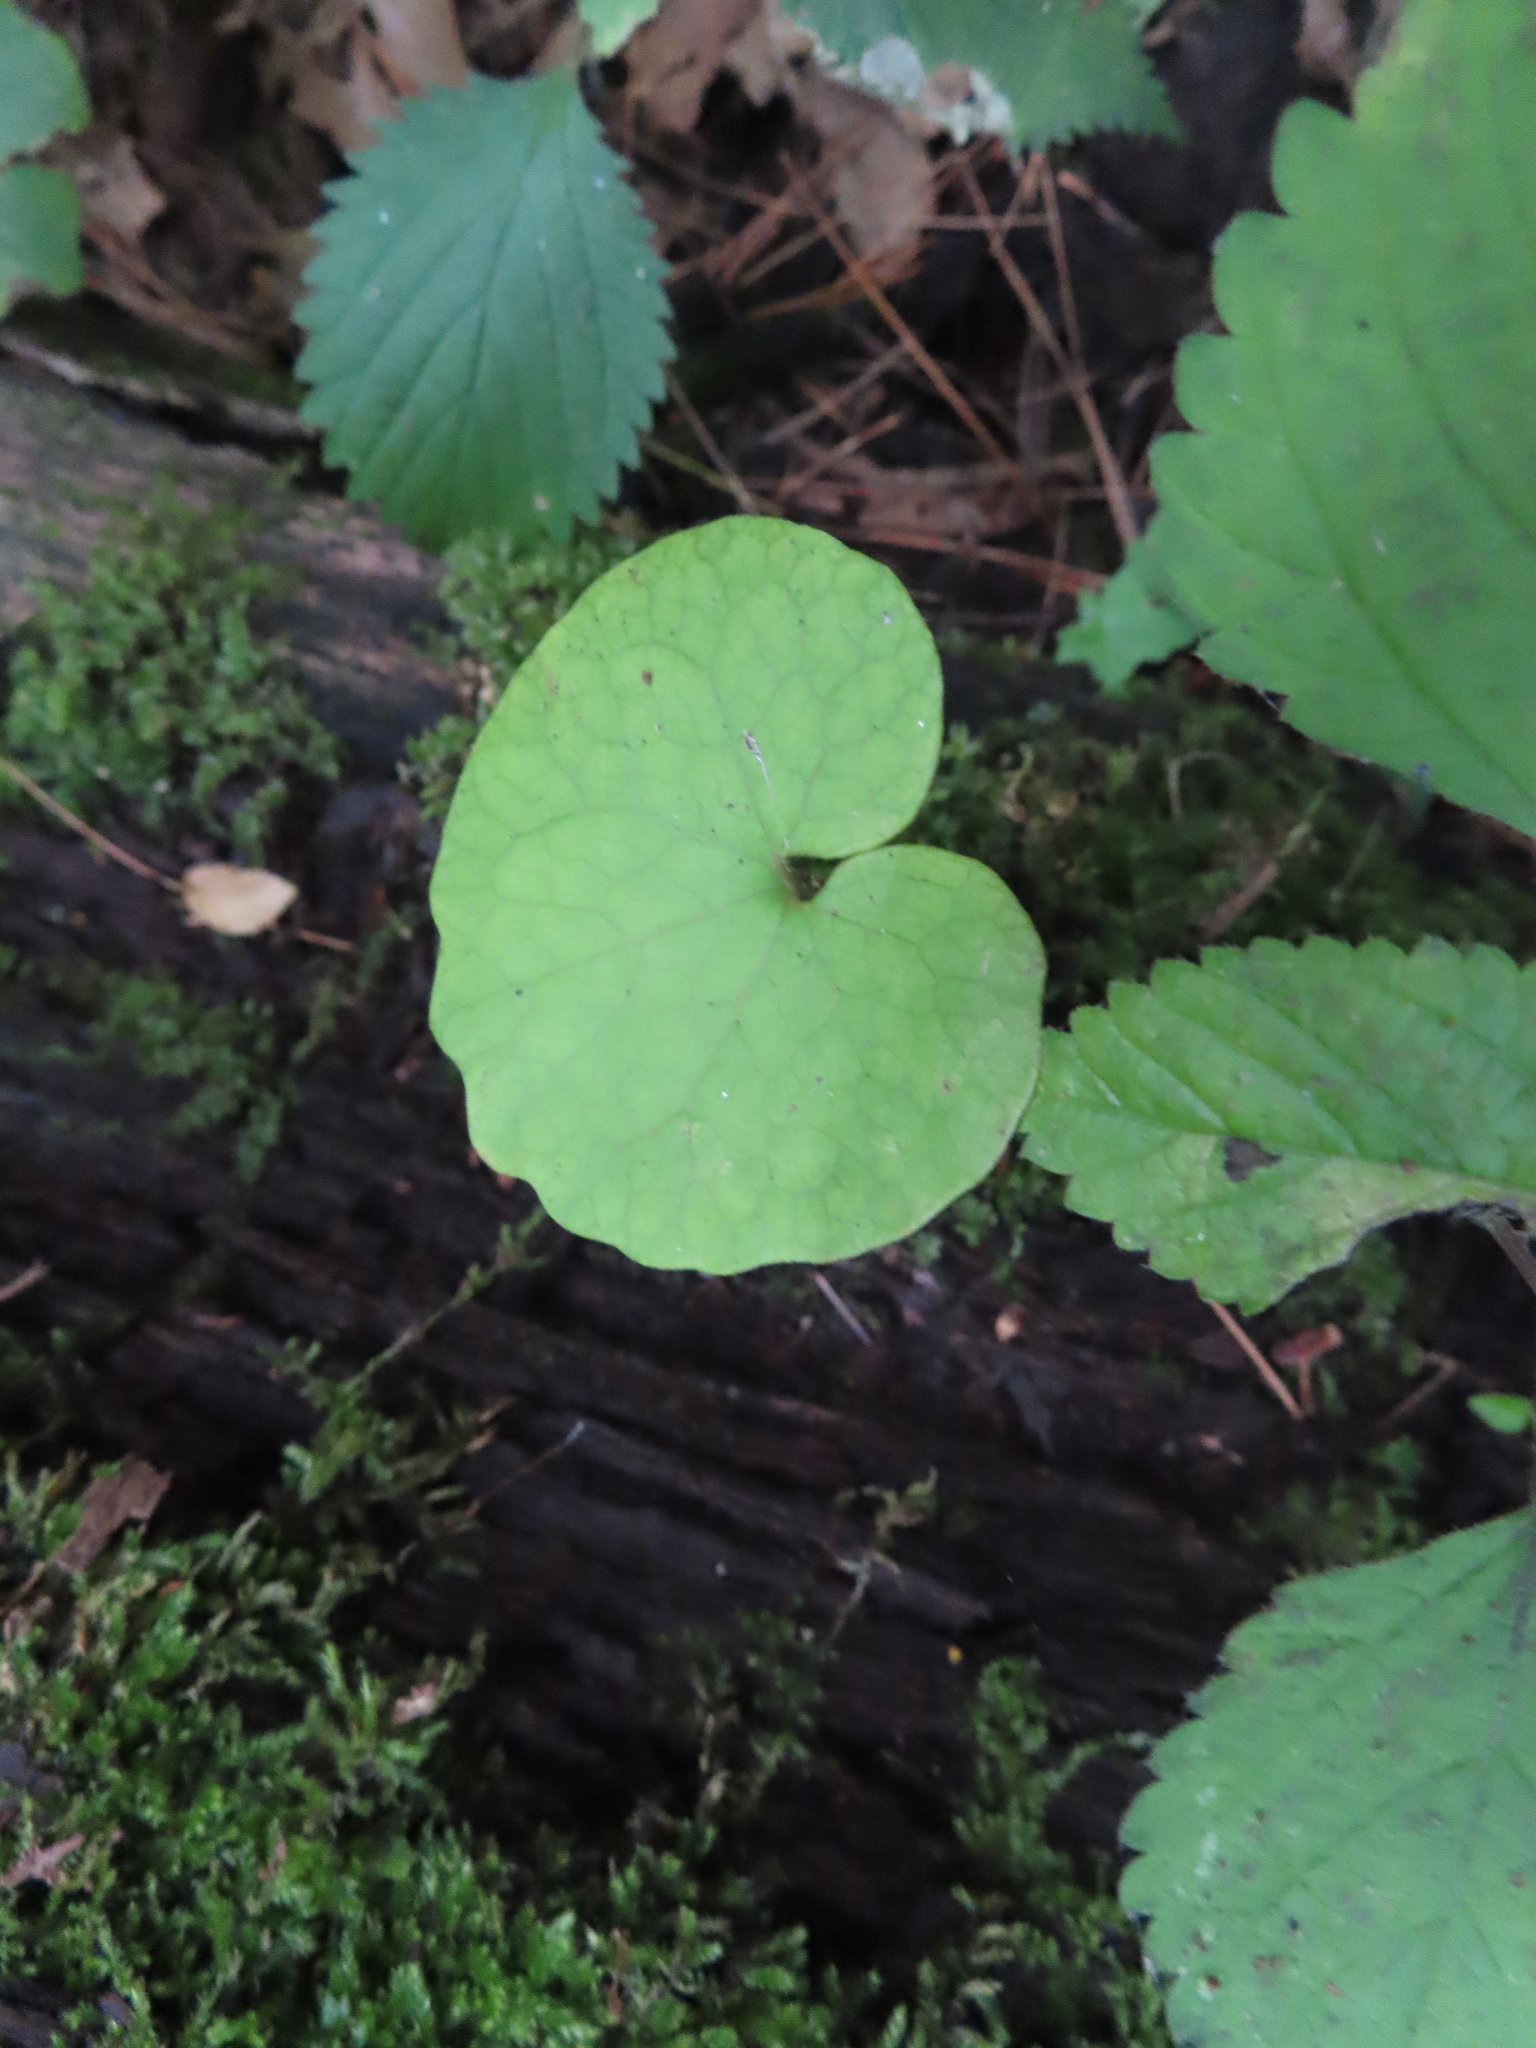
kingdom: Plantae
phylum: Tracheophyta
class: Magnoliopsida
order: Piperales
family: Aristolochiaceae
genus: Asarum
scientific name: Asarum canadense
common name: Wild ginger
